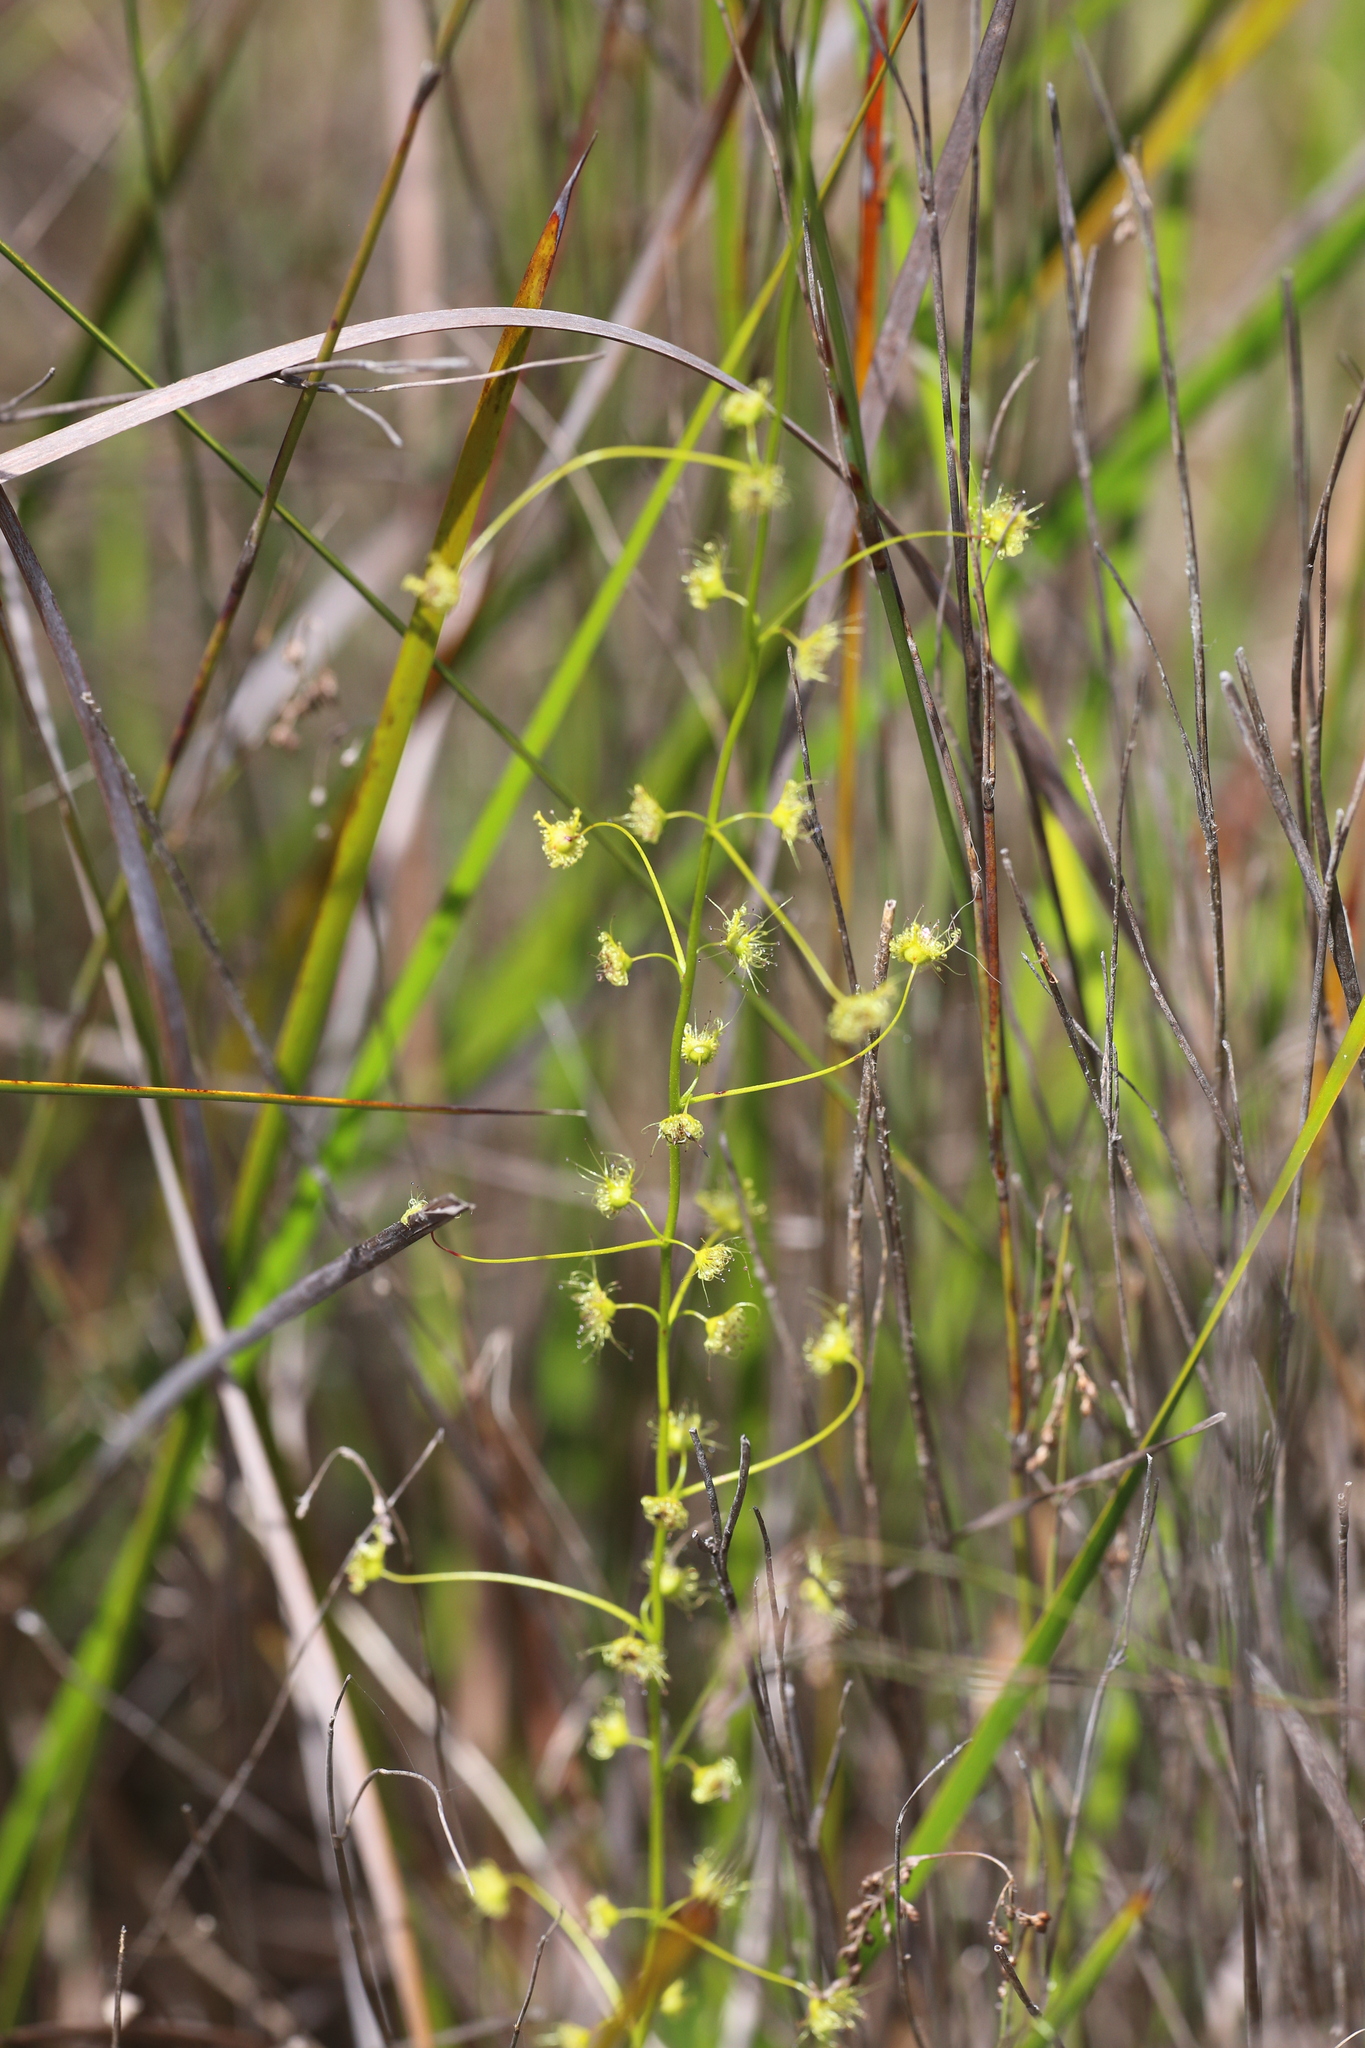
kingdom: Plantae
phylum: Tracheophyta
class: Magnoliopsida
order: Caryophyllales
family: Droseraceae
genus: Drosera
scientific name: Drosera neesii
